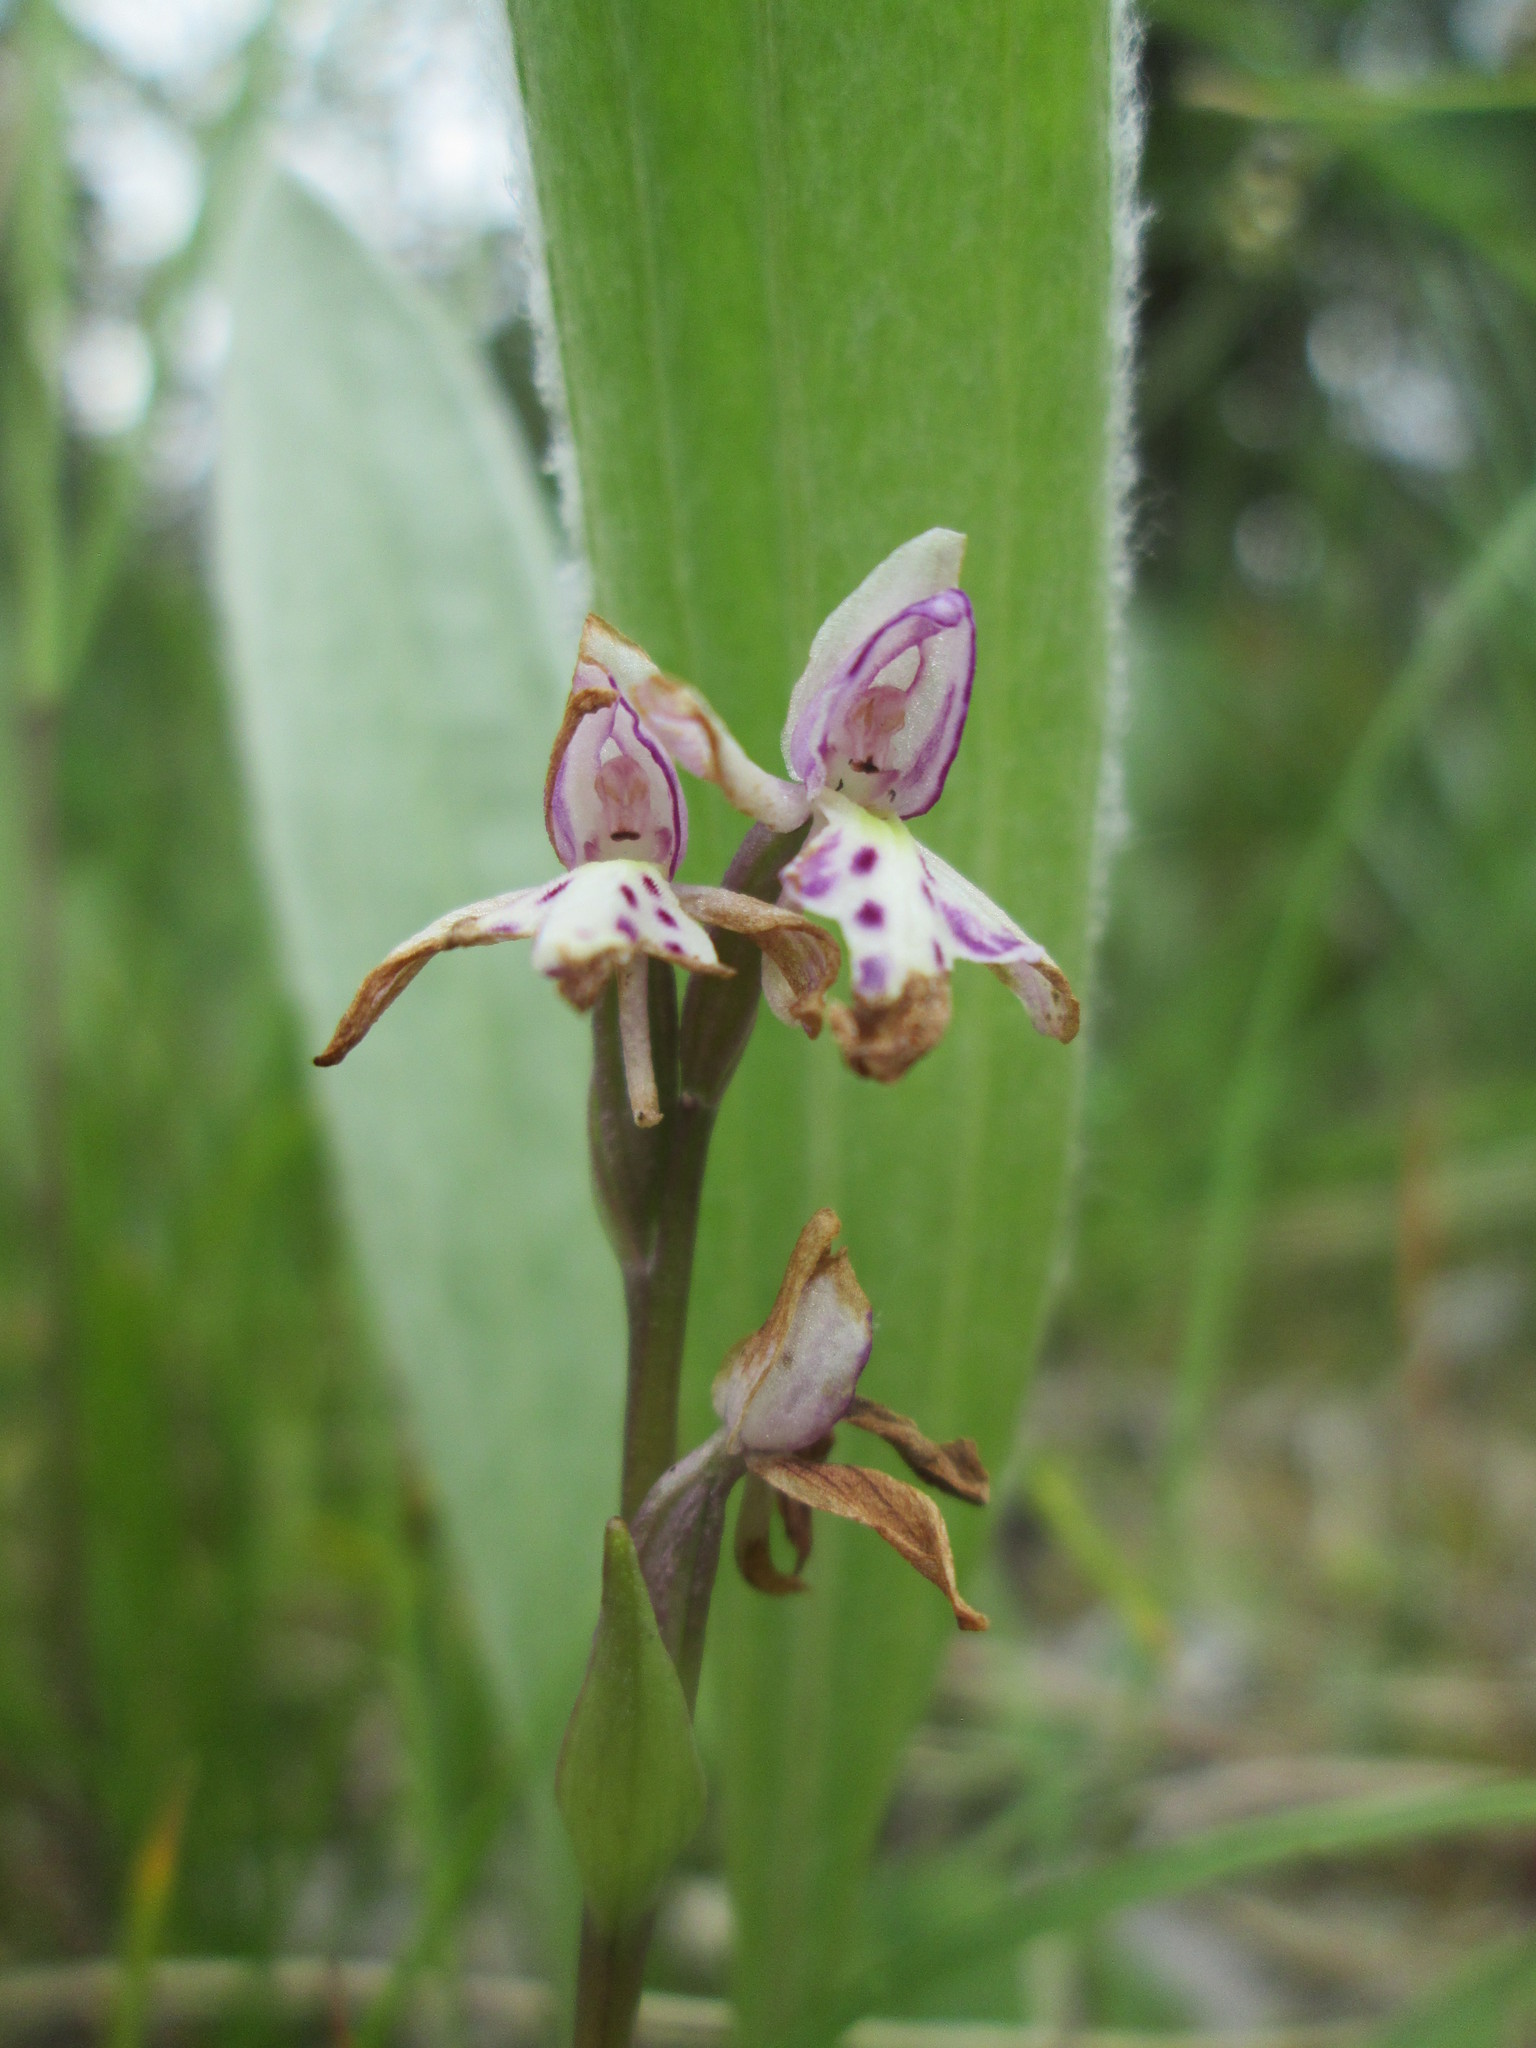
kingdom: Plantae
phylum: Tracheophyta
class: Liliopsida
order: Asparagales
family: Orchidaceae
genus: Galearis
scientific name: Galearis rotundifolia
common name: One-leaved orchis
